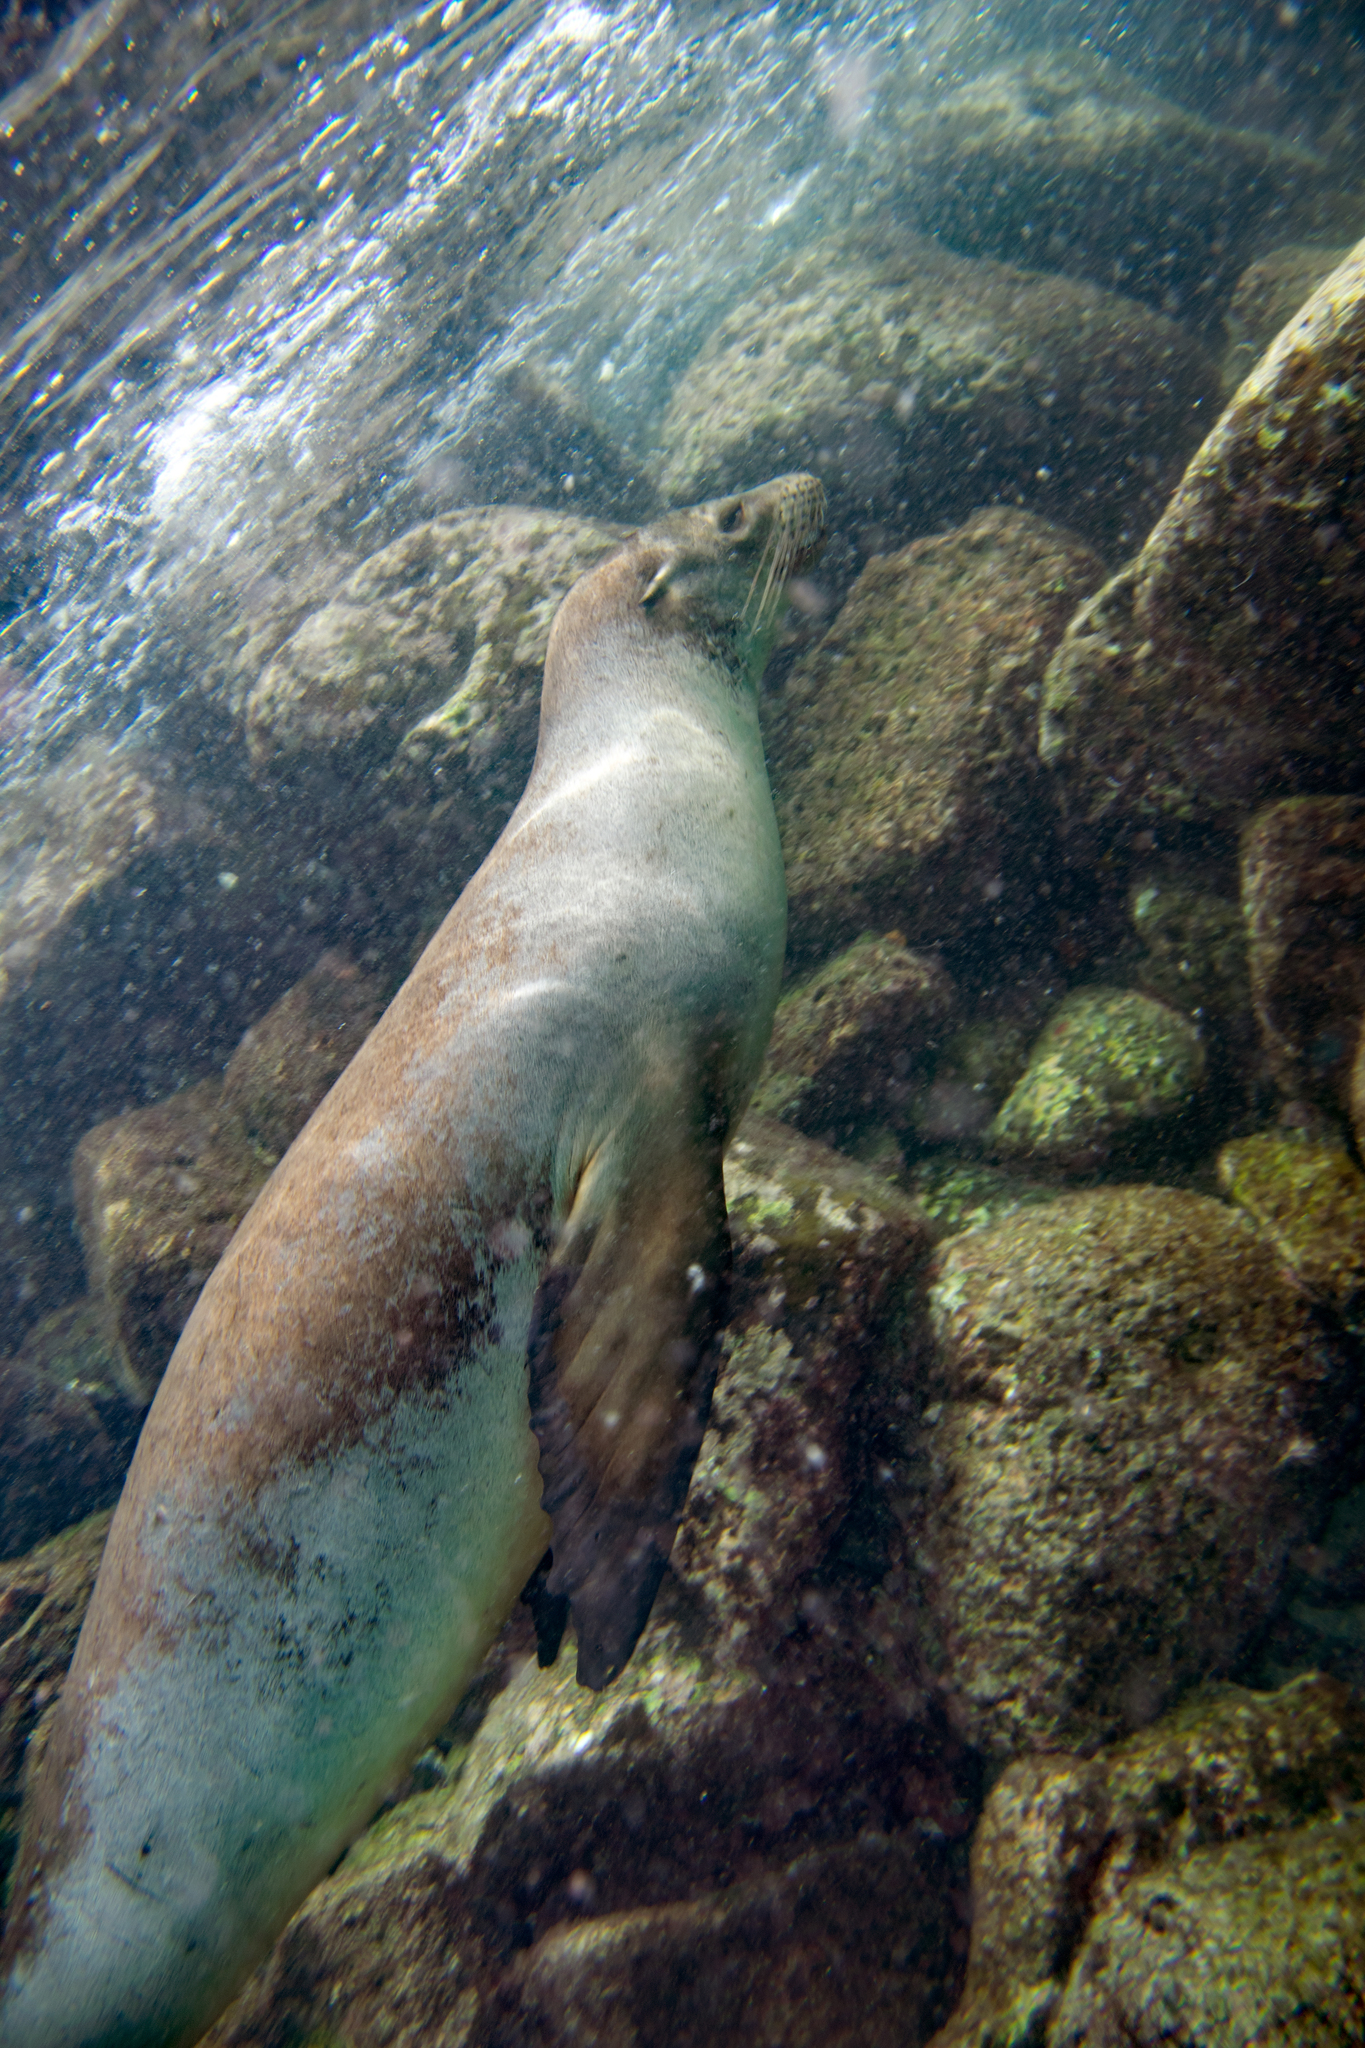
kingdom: Animalia
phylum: Chordata
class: Mammalia
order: Carnivora
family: Otariidae
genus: Zalophus
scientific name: Zalophus wollebaeki
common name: Galapagos sea lion
